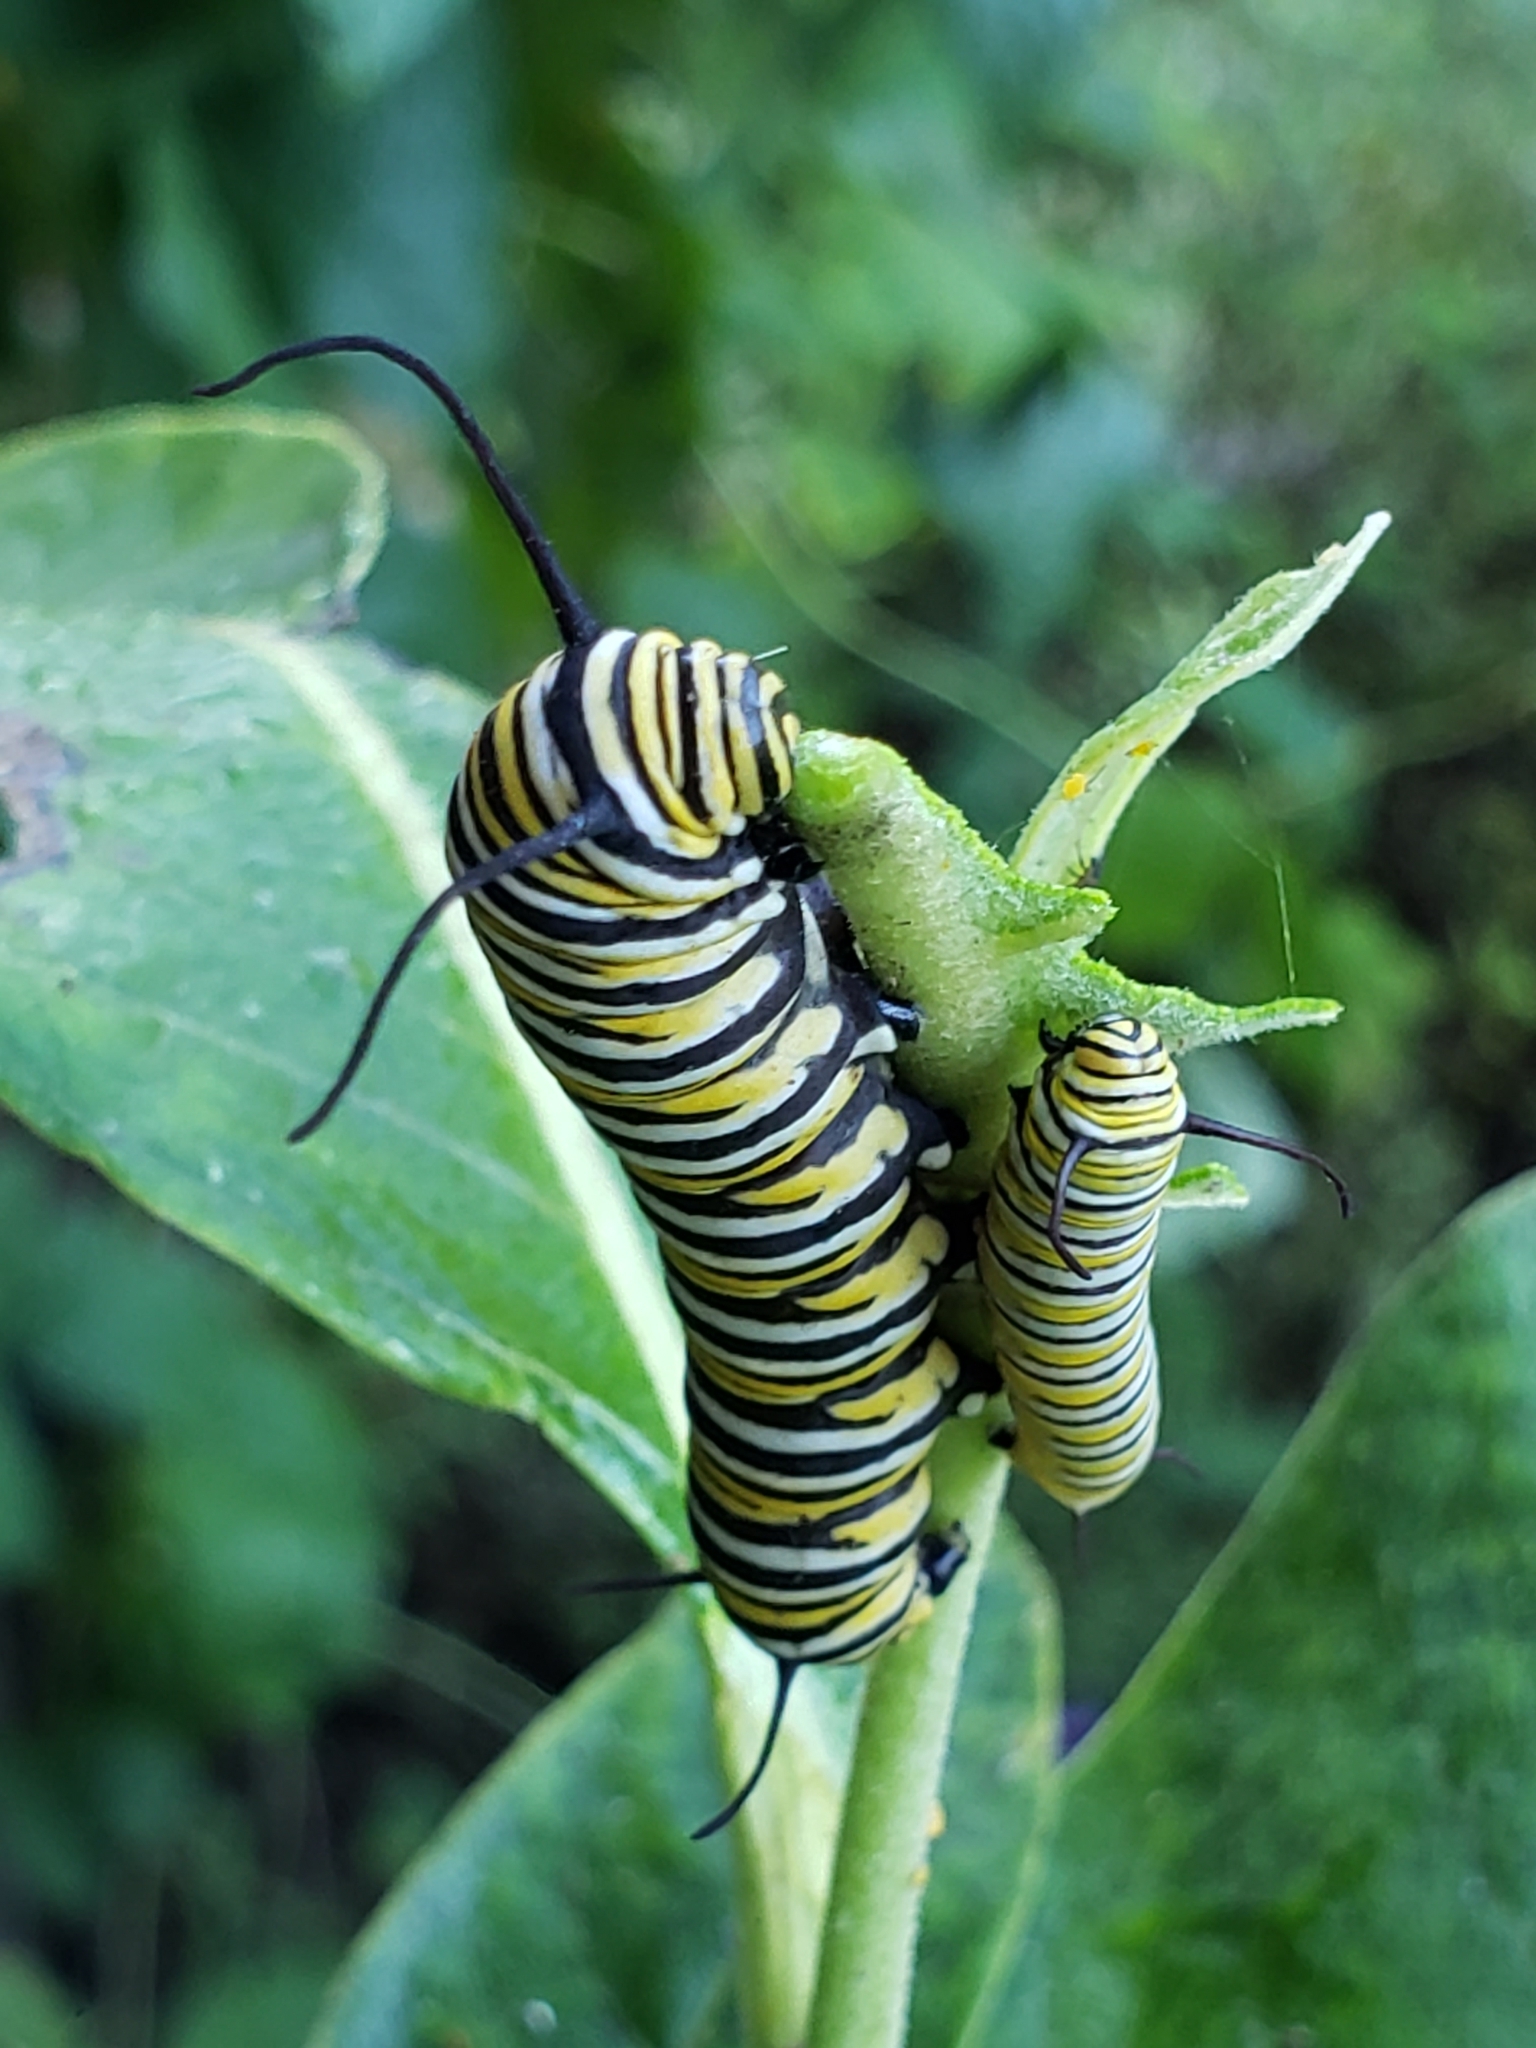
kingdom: Animalia
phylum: Arthropoda
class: Insecta
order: Lepidoptera
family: Nymphalidae
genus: Danaus
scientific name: Danaus plexippus
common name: Monarch
